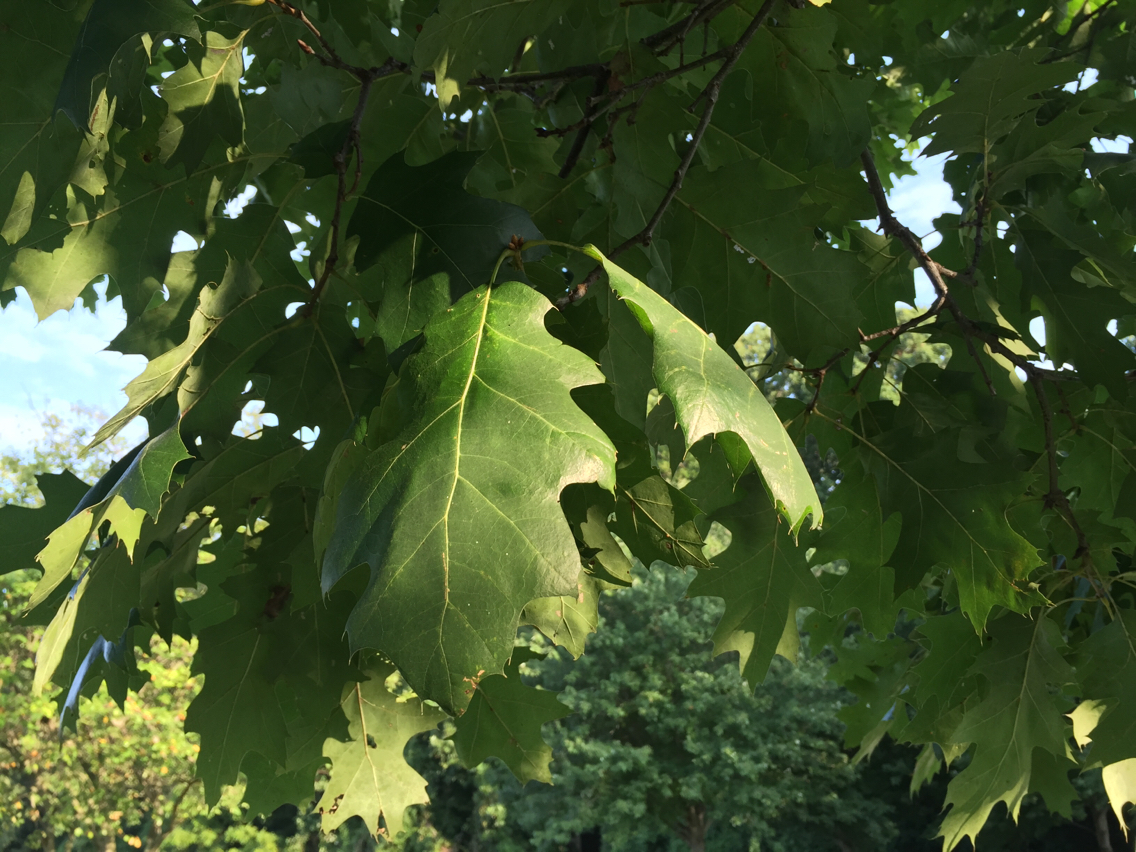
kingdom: Plantae
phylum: Tracheophyta
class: Magnoliopsida
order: Fagales
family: Fagaceae
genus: Quercus
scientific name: Quercus rubra
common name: Red oak
